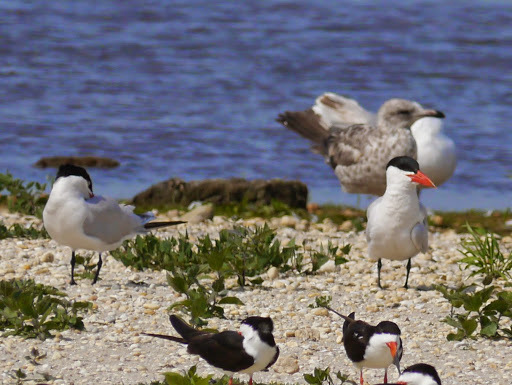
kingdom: Animalia
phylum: Chordata
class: Aves
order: Charadriiformes
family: Laridae
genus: Hydroprogne
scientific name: Hydroprogne caspia
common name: Caspian tern
